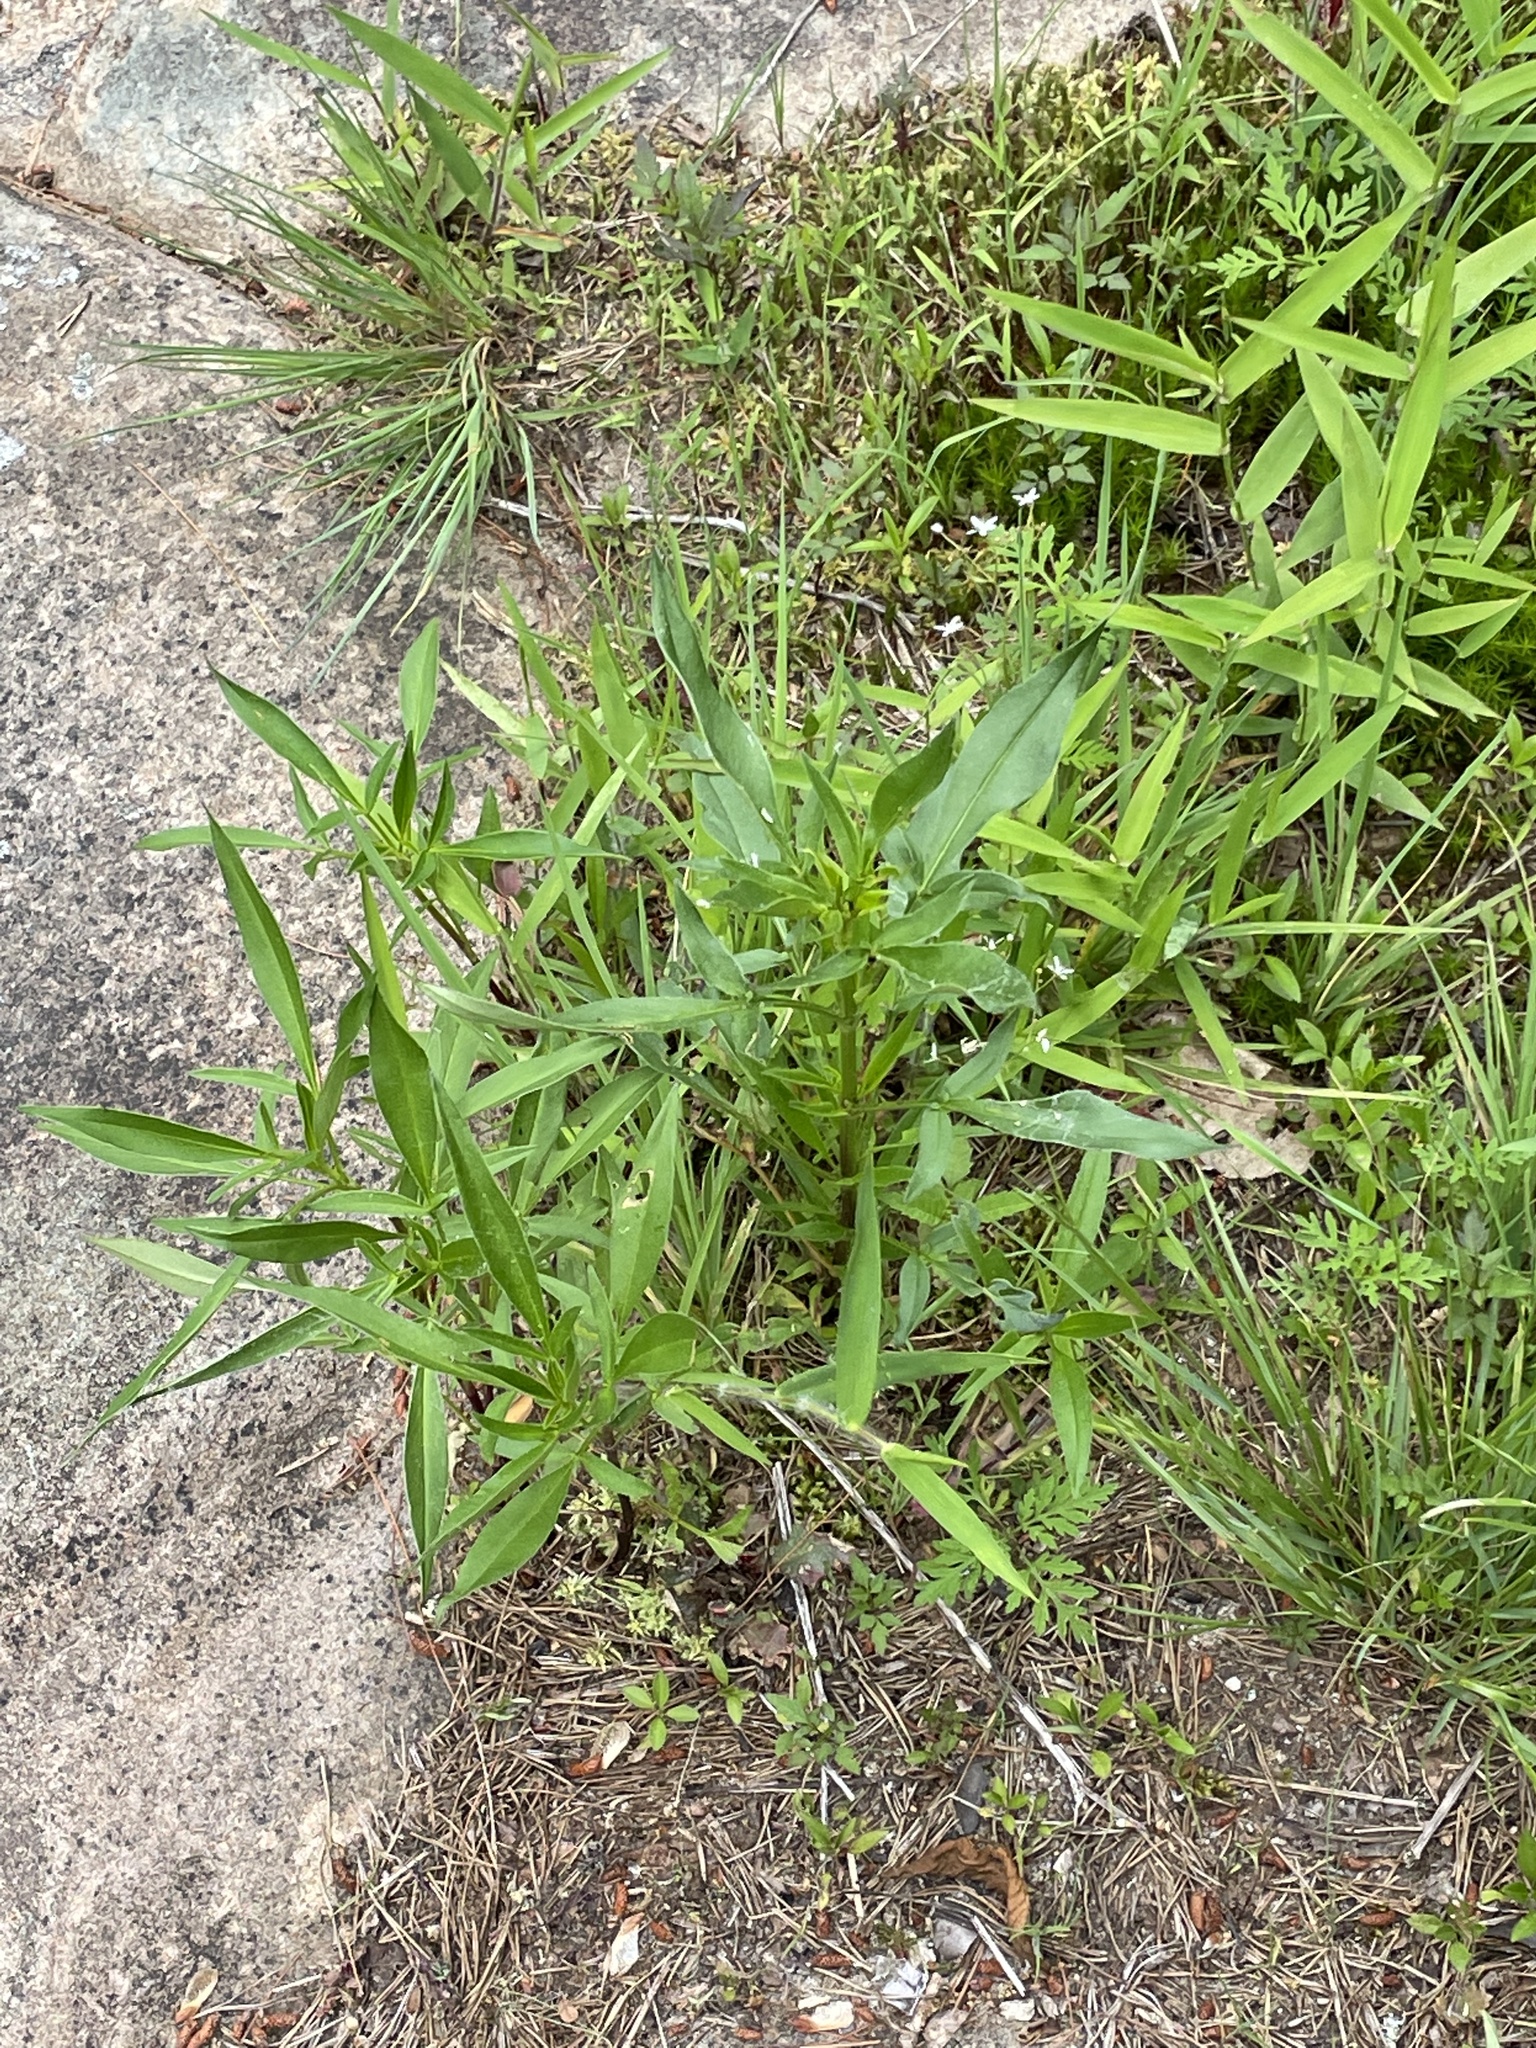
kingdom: Plantae
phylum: Tracheophyta
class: Magnoliopsida
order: Asterales
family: Asteraceae
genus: Coreopsis
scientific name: Coreopsis tripteris
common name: Tall coreopsis
